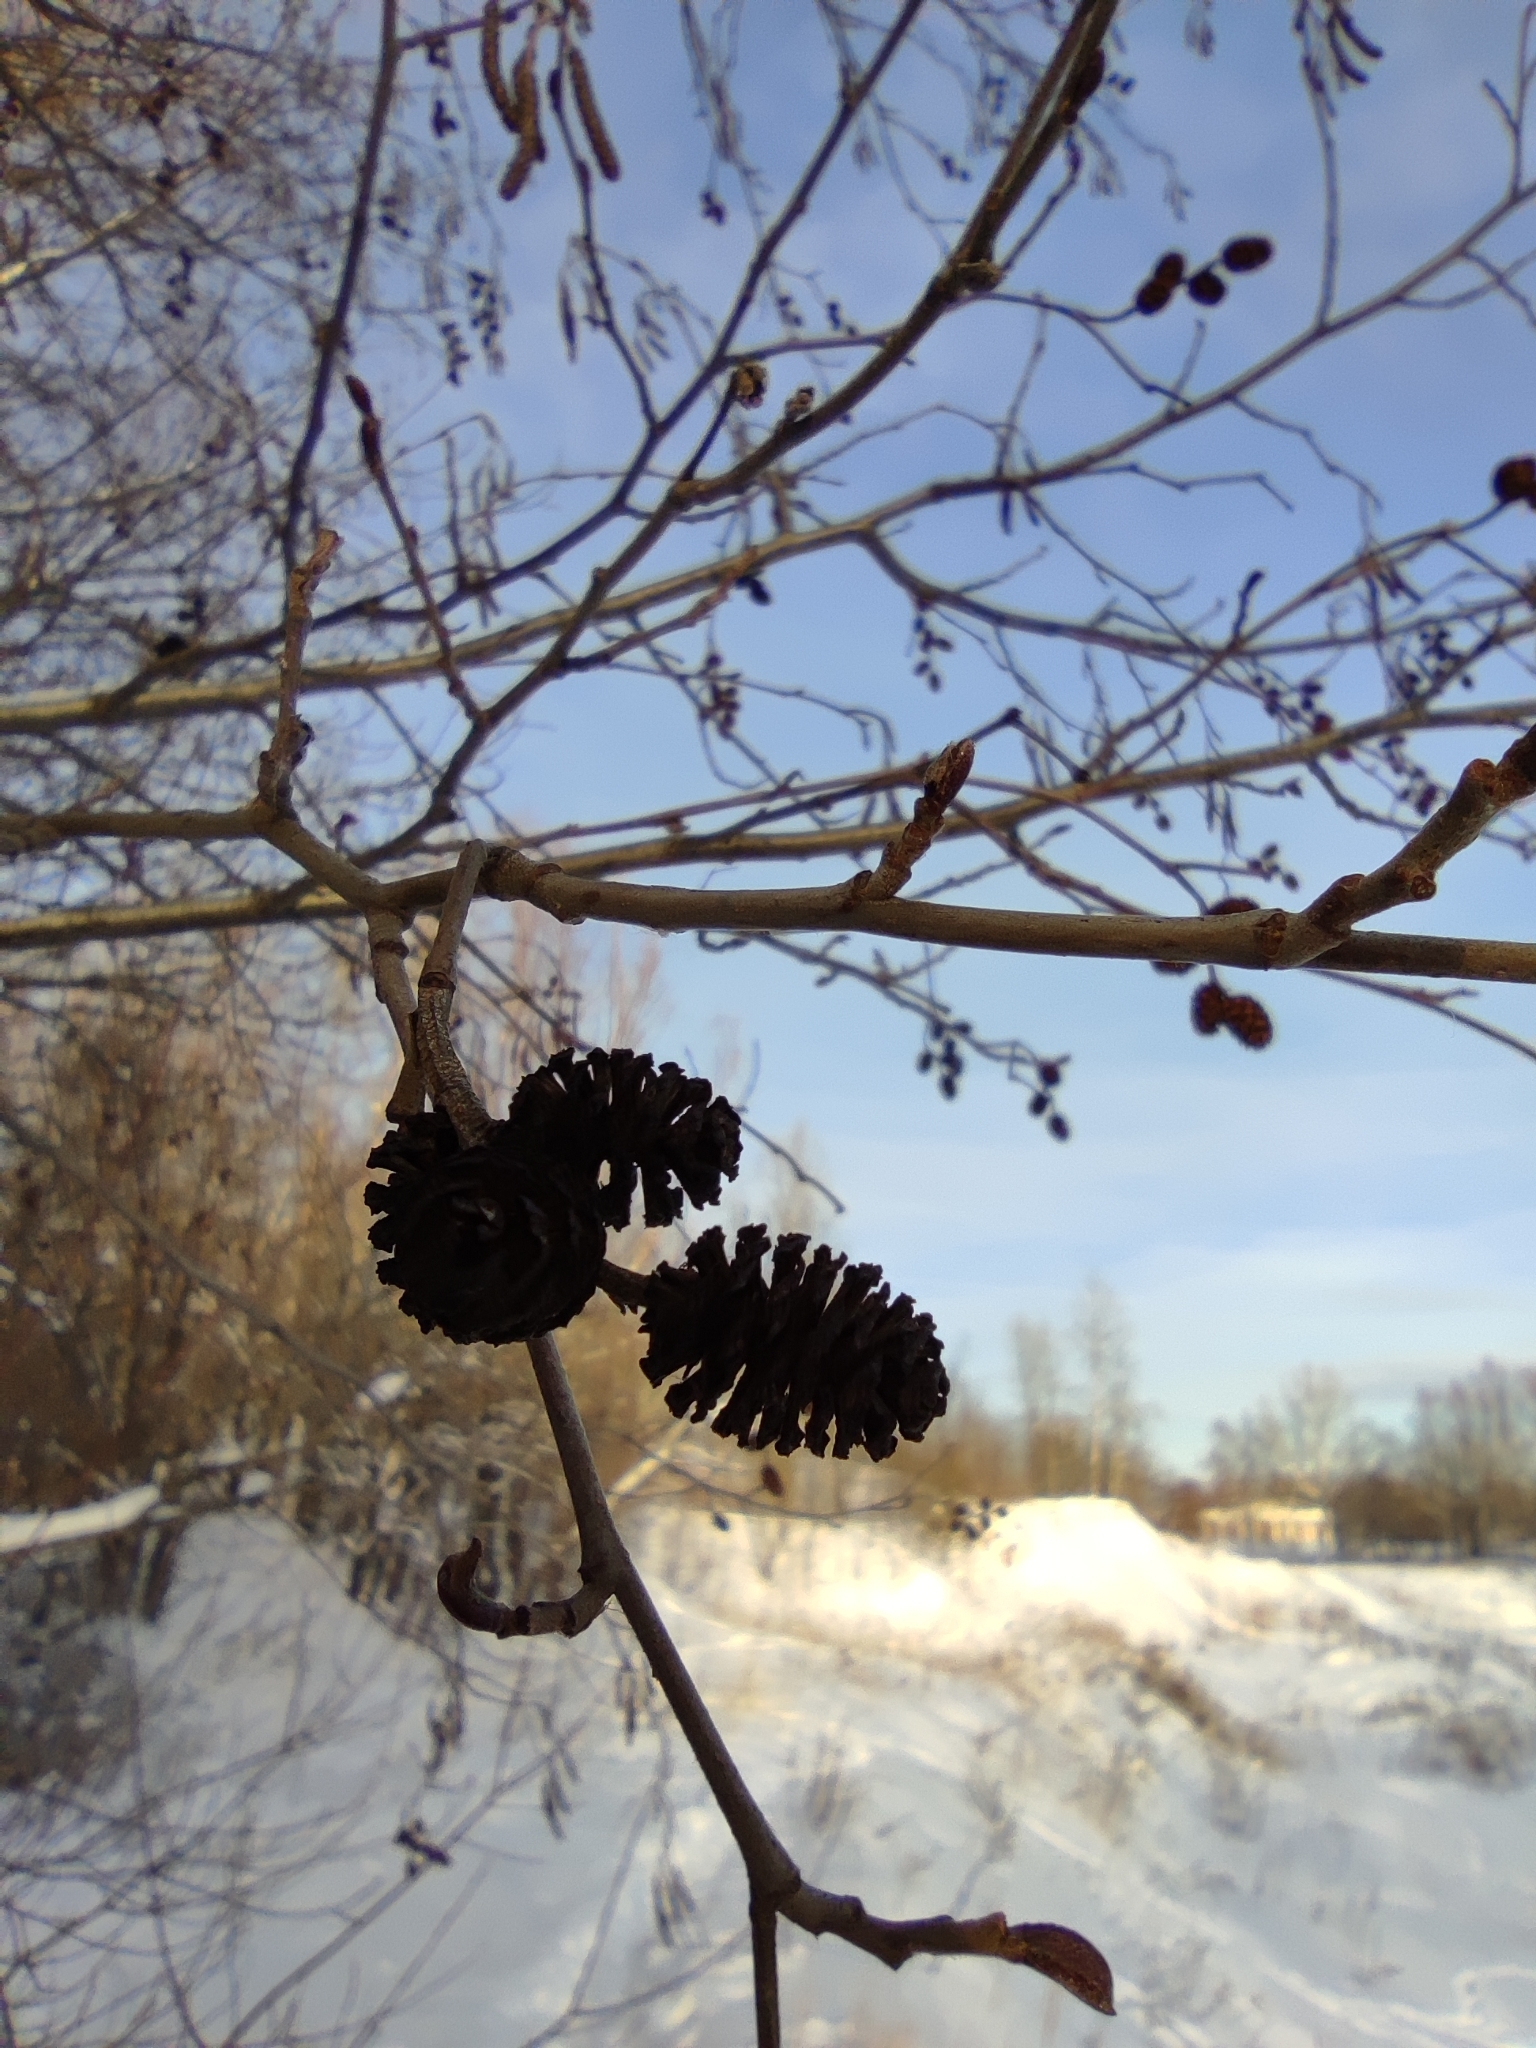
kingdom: Plantae
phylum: Tracheophyta
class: Magnoliopsida
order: Fagales
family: Betulaceae
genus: Alnus
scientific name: Alnus incana
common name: Grey alder
